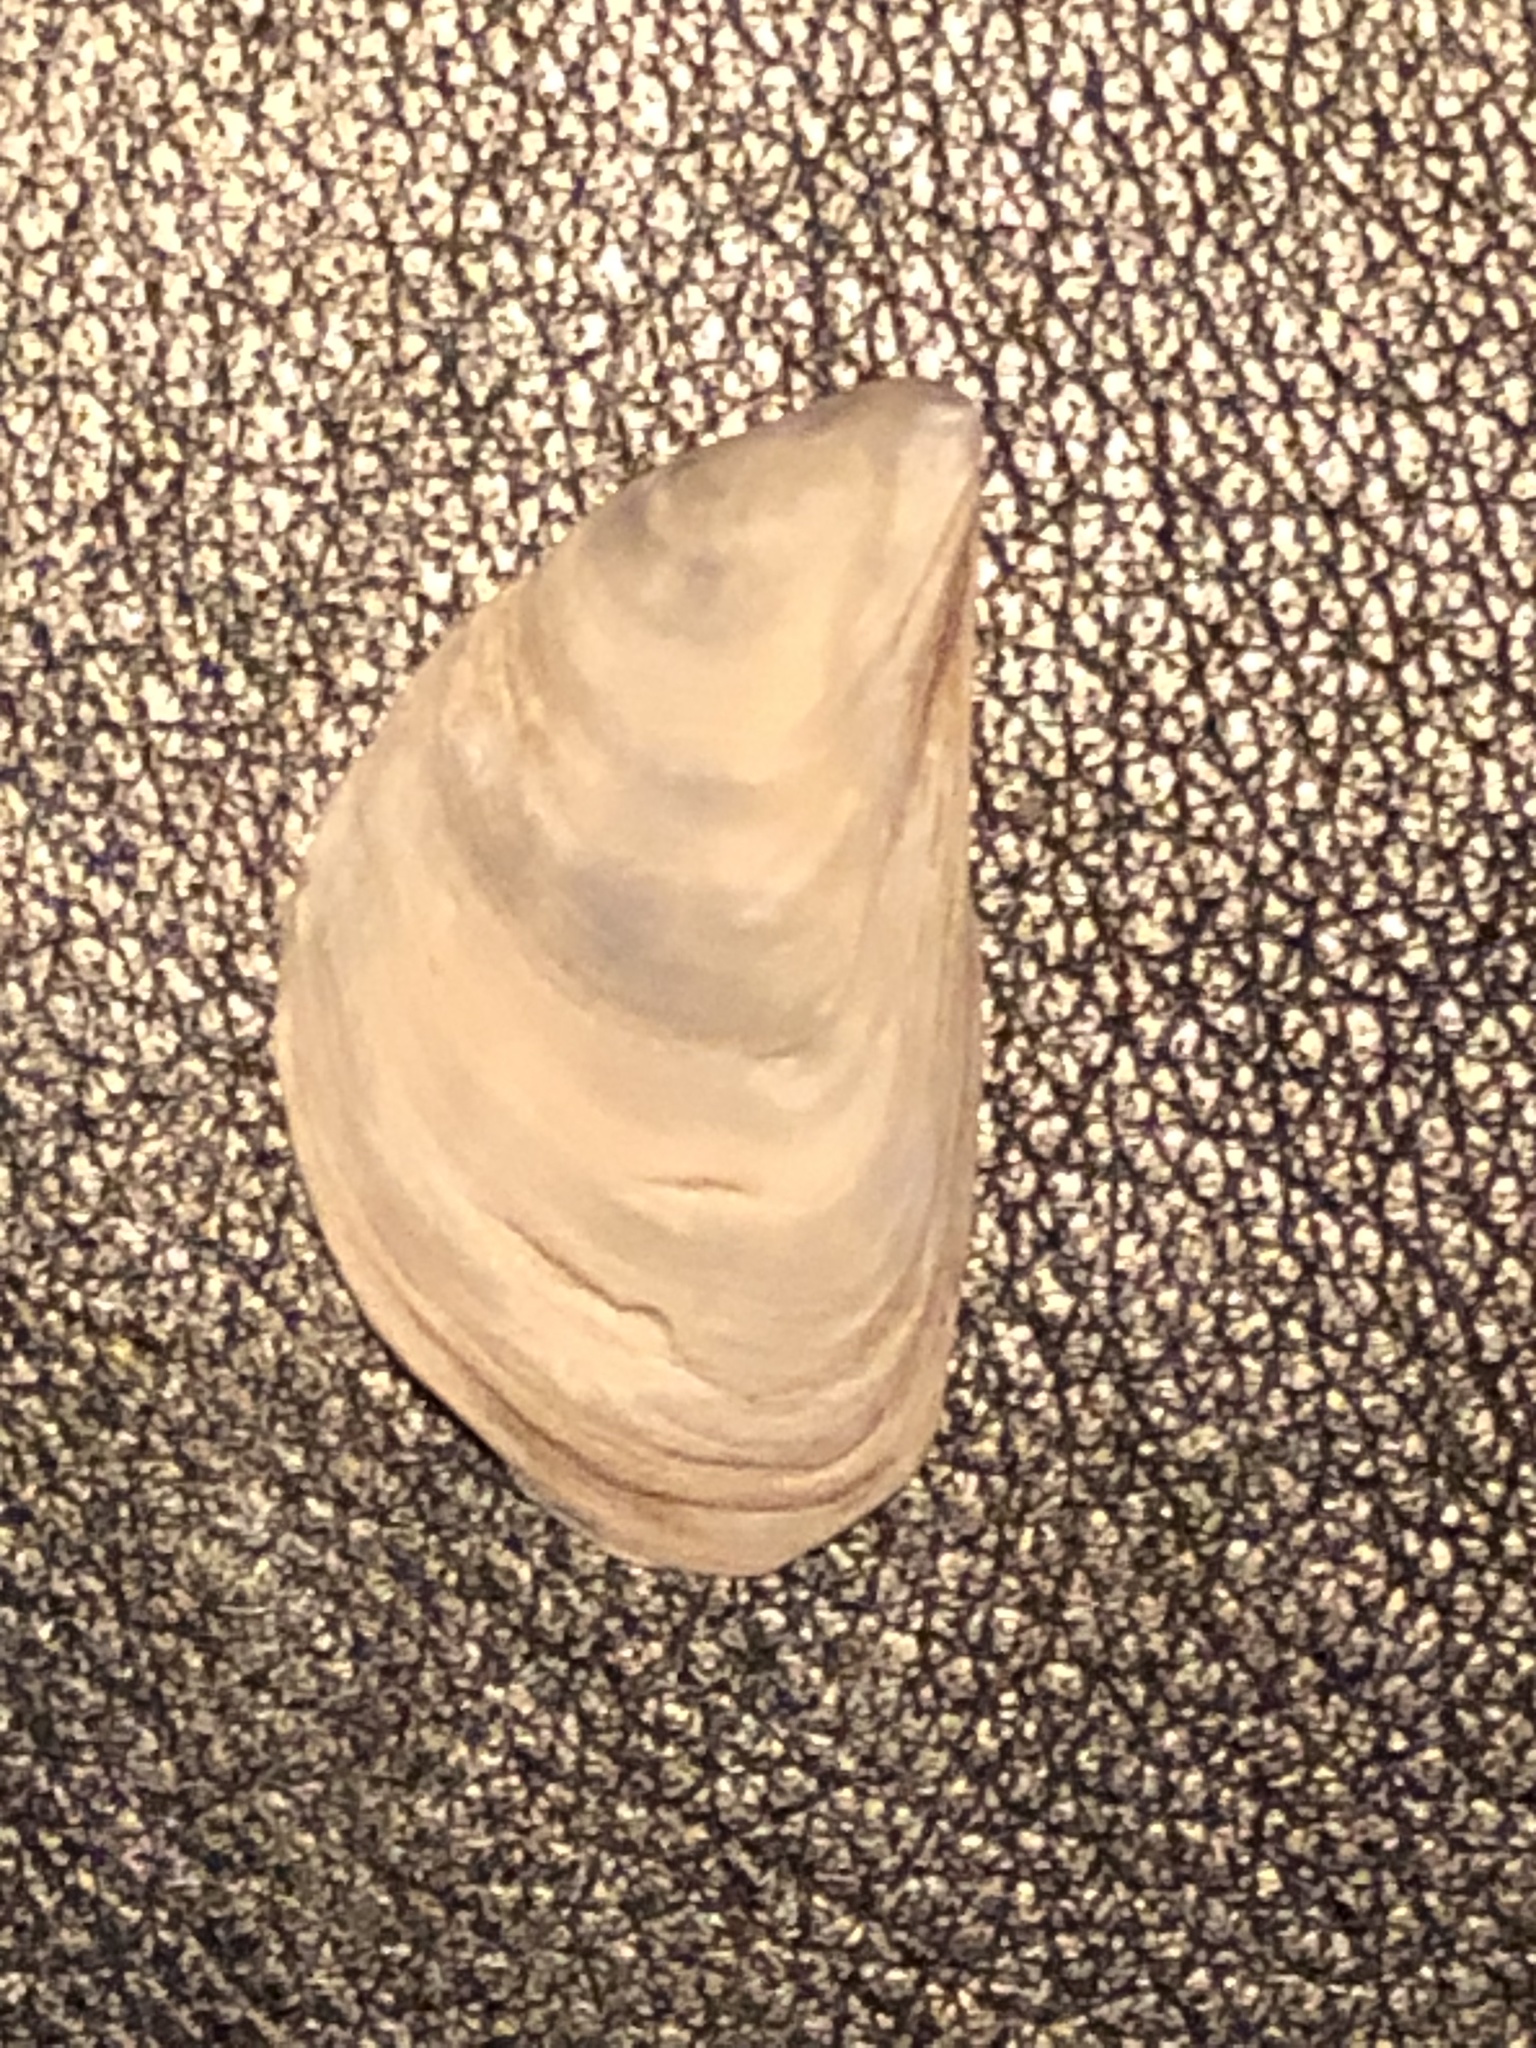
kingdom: Animalia
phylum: Mollusca
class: Bivalvia
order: Myida
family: Dreissenidae
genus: Dreissena
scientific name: Dreissena bugensis
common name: Quagga mussel
